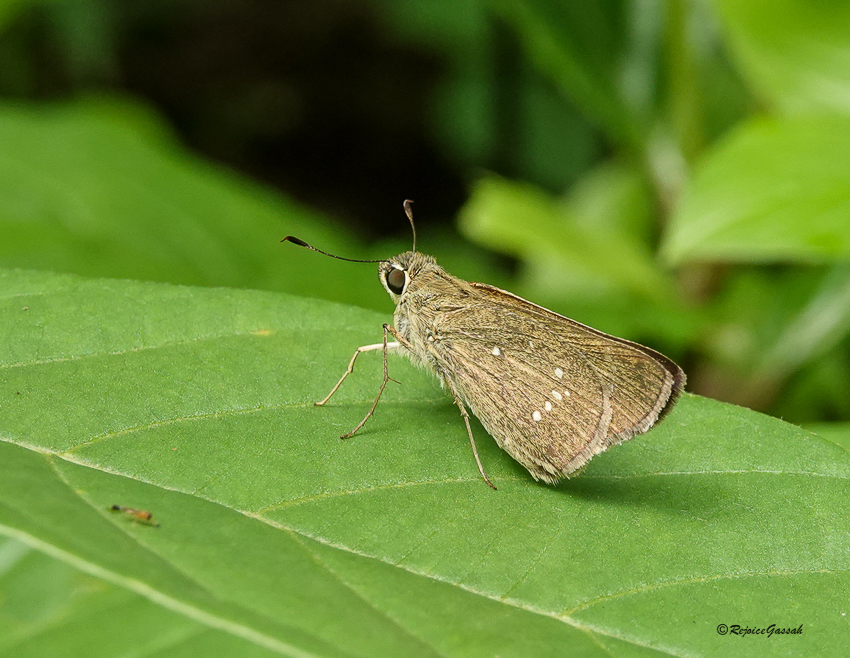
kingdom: Animalia
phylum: Arthropoda
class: Insecta
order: Lepidoptera
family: Hesperiidae
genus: Parnara
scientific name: Parnara naso
